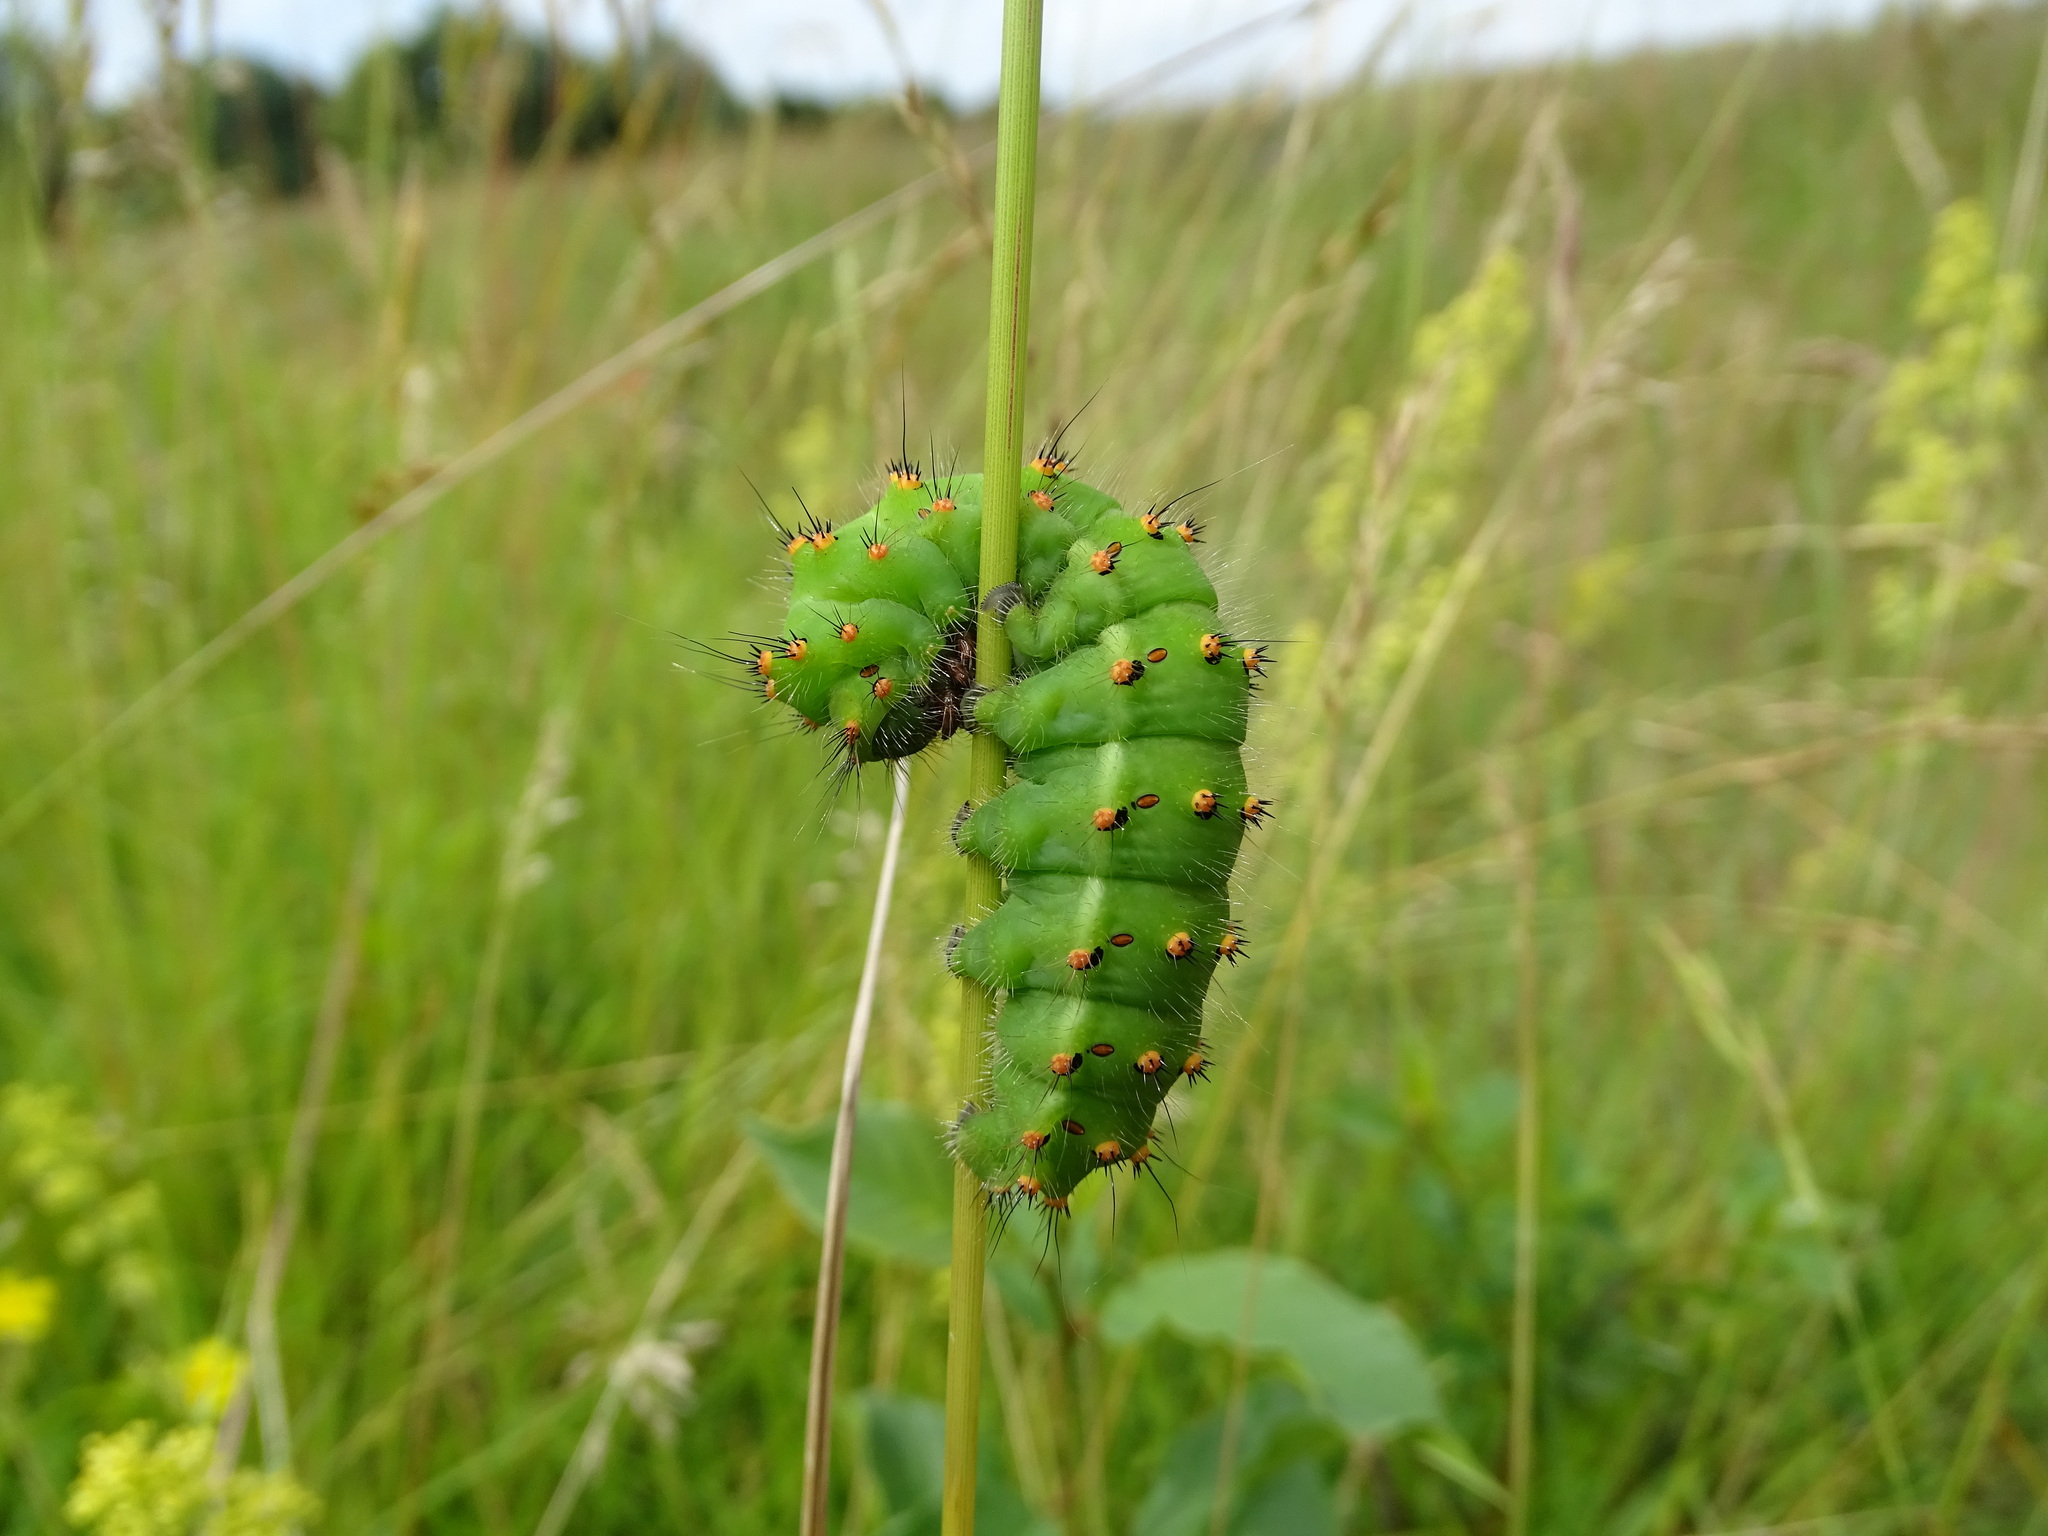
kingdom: Animalia
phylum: Arthropoda
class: Insecta
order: Lepidoptera
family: Saturniidae
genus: Saturnia
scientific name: Saturnia pavonia
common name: Emperor moth
